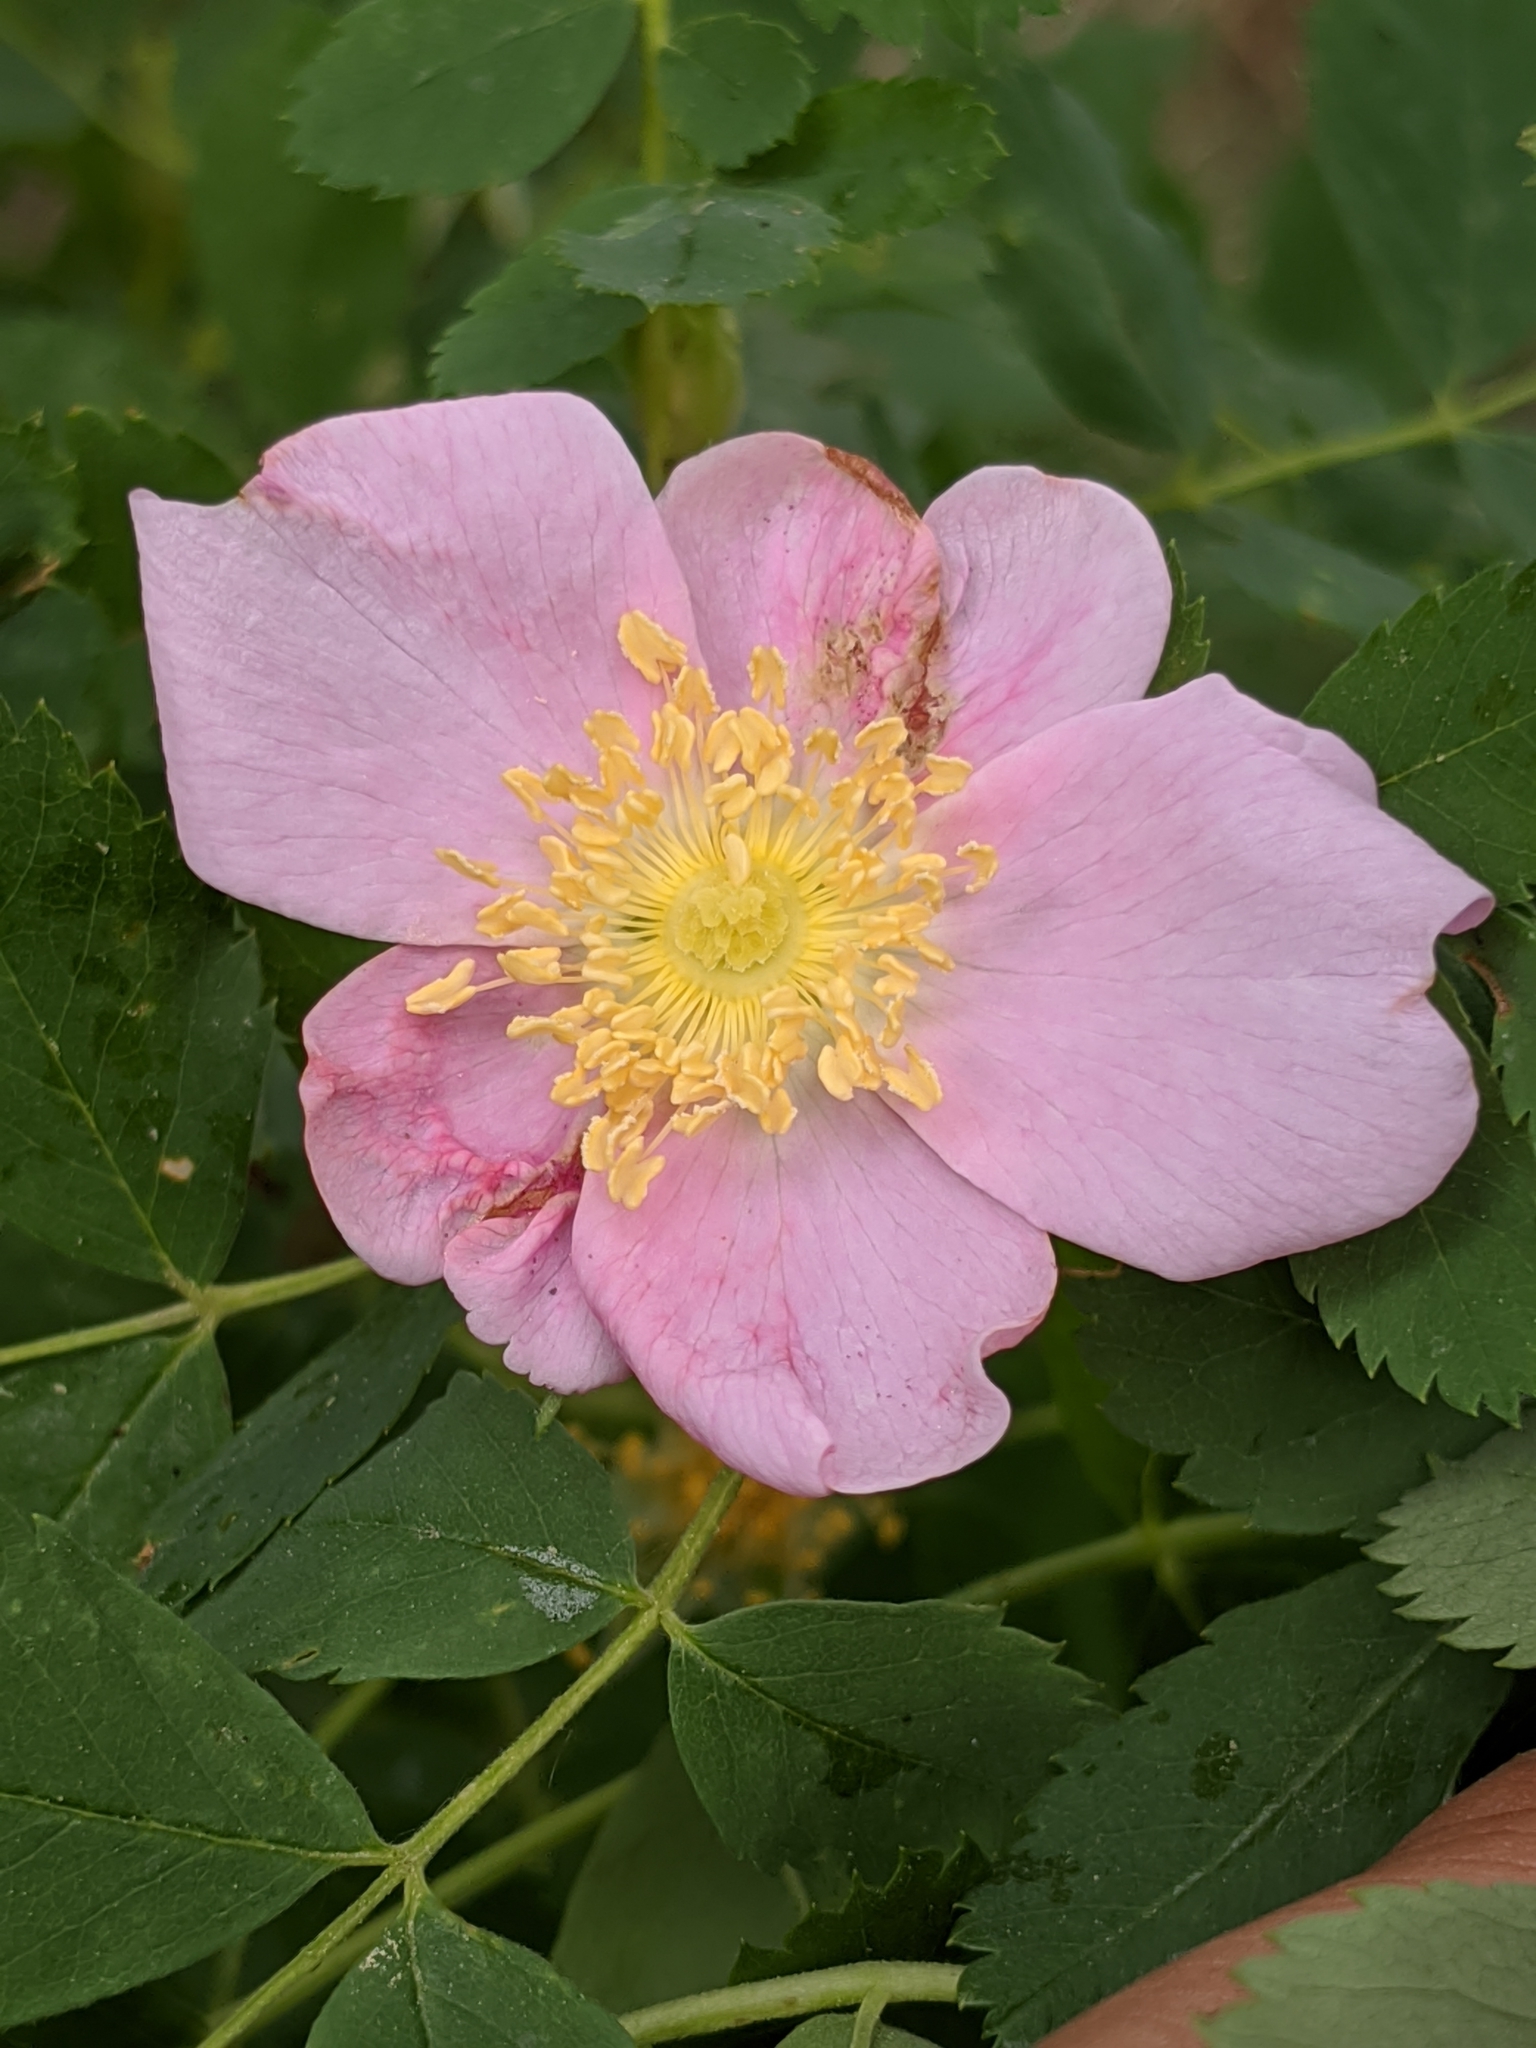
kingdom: Plantae
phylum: Tracheophyta
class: Magnoliopsida
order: Rosales
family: Rosaceae
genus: Rosa
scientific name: Rosa woodsii
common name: Woods's rose
